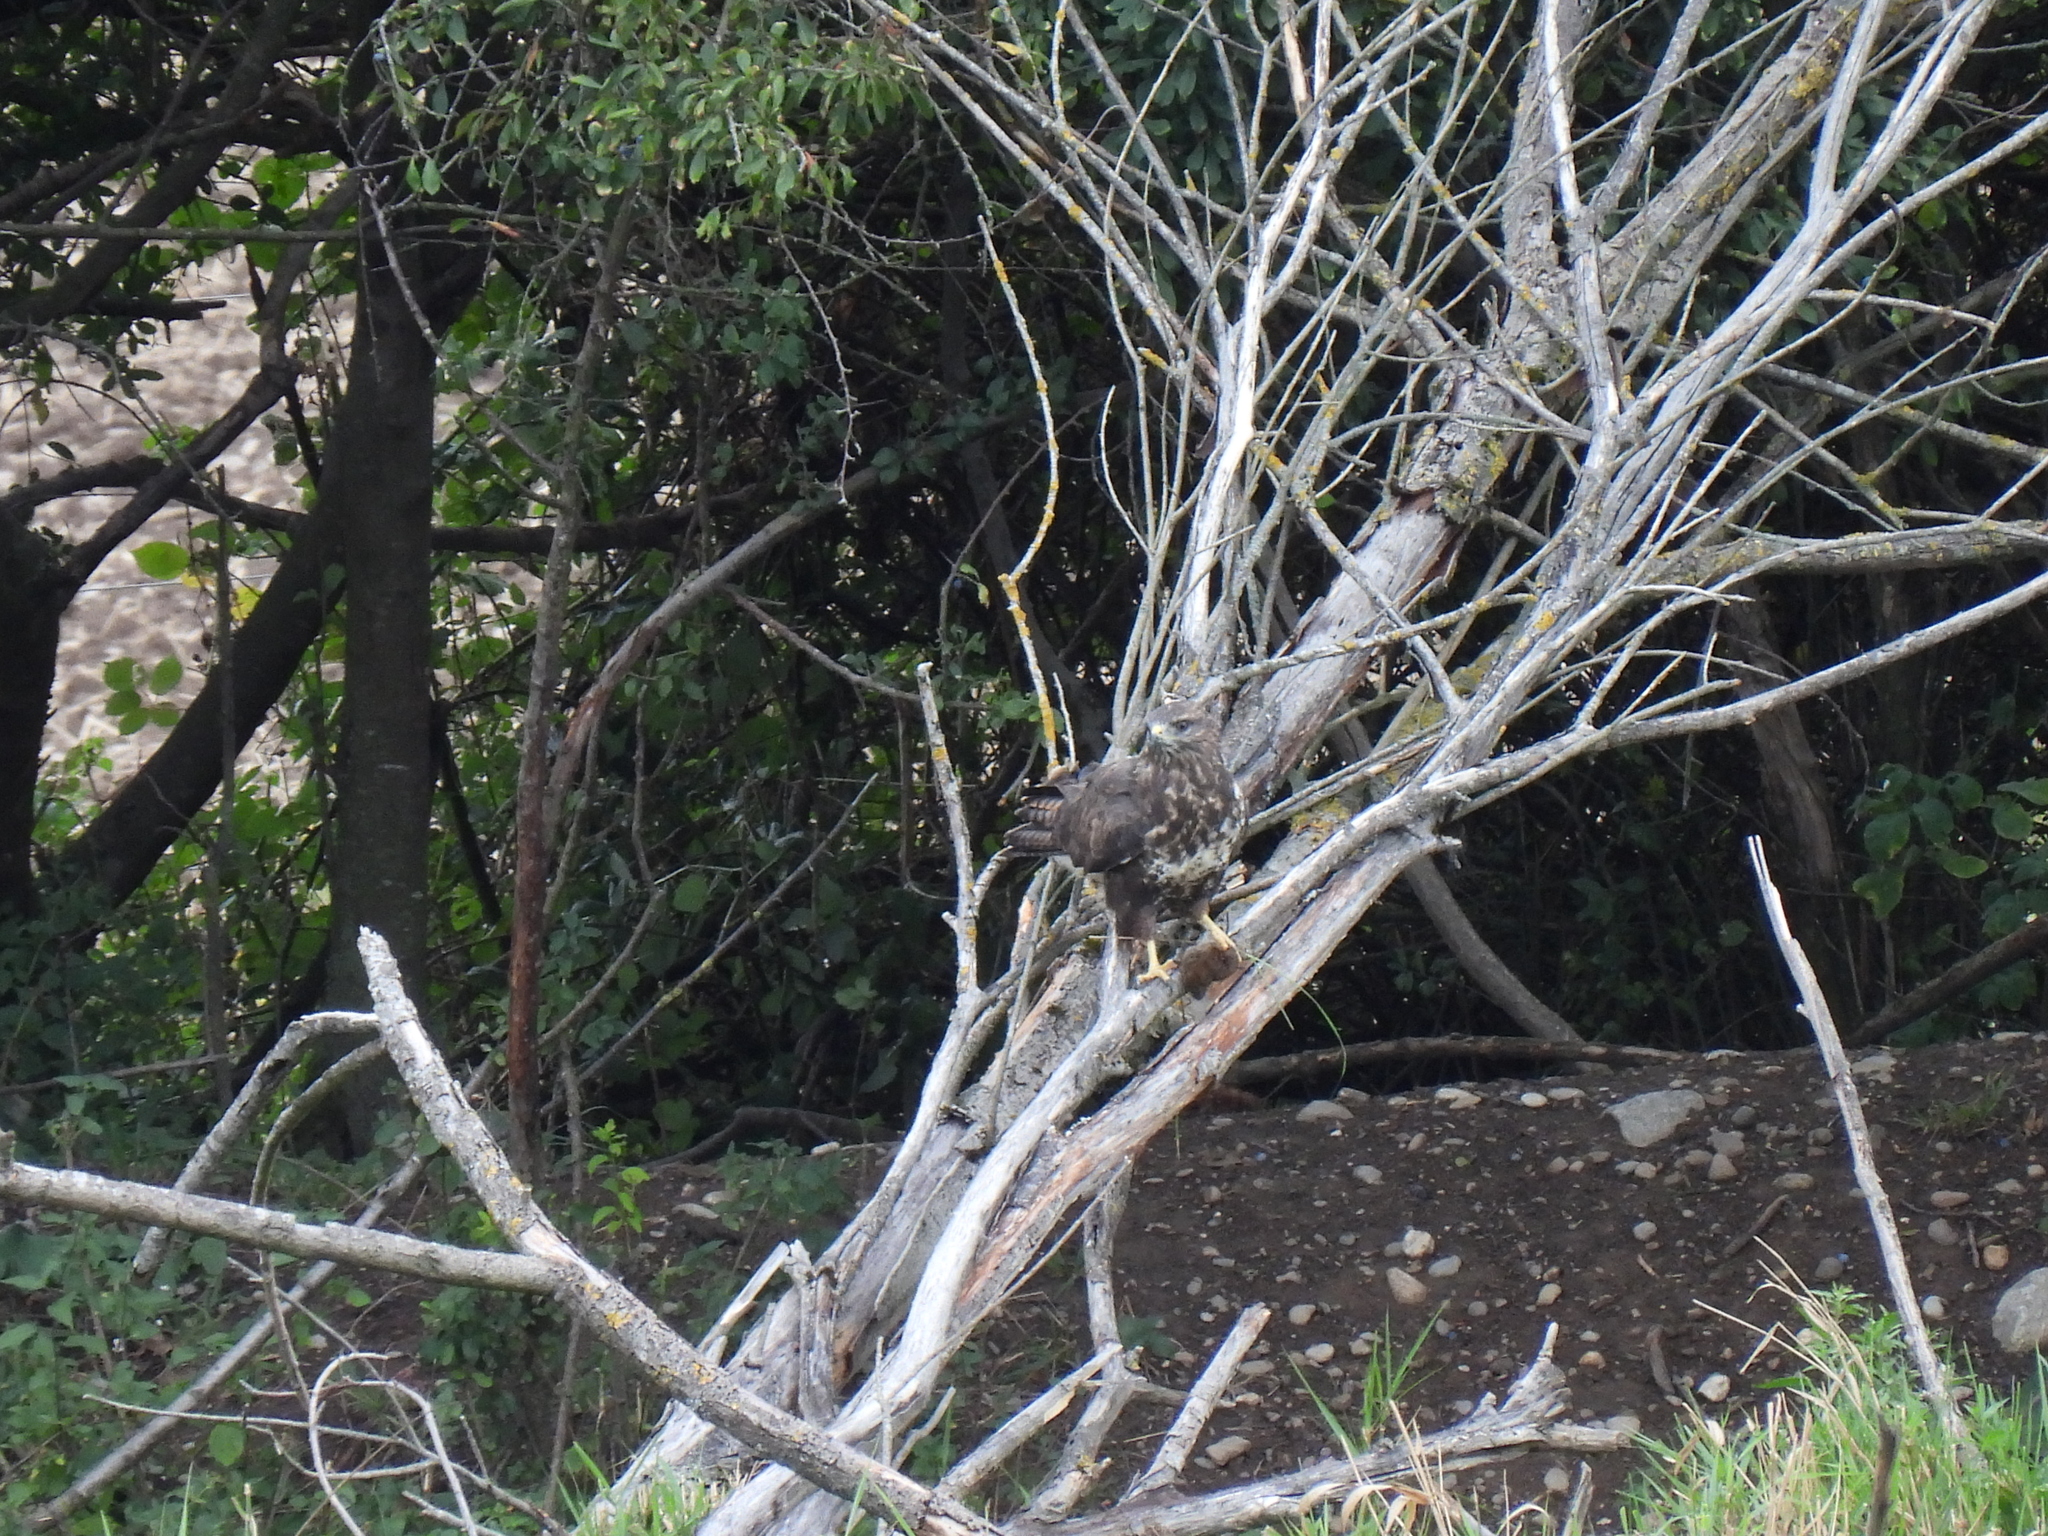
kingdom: Animalia
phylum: Chordata
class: Aves
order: Accipitriformes
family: Accipitridae
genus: Buteo
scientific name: Buteo buteo
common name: Common buzzard
